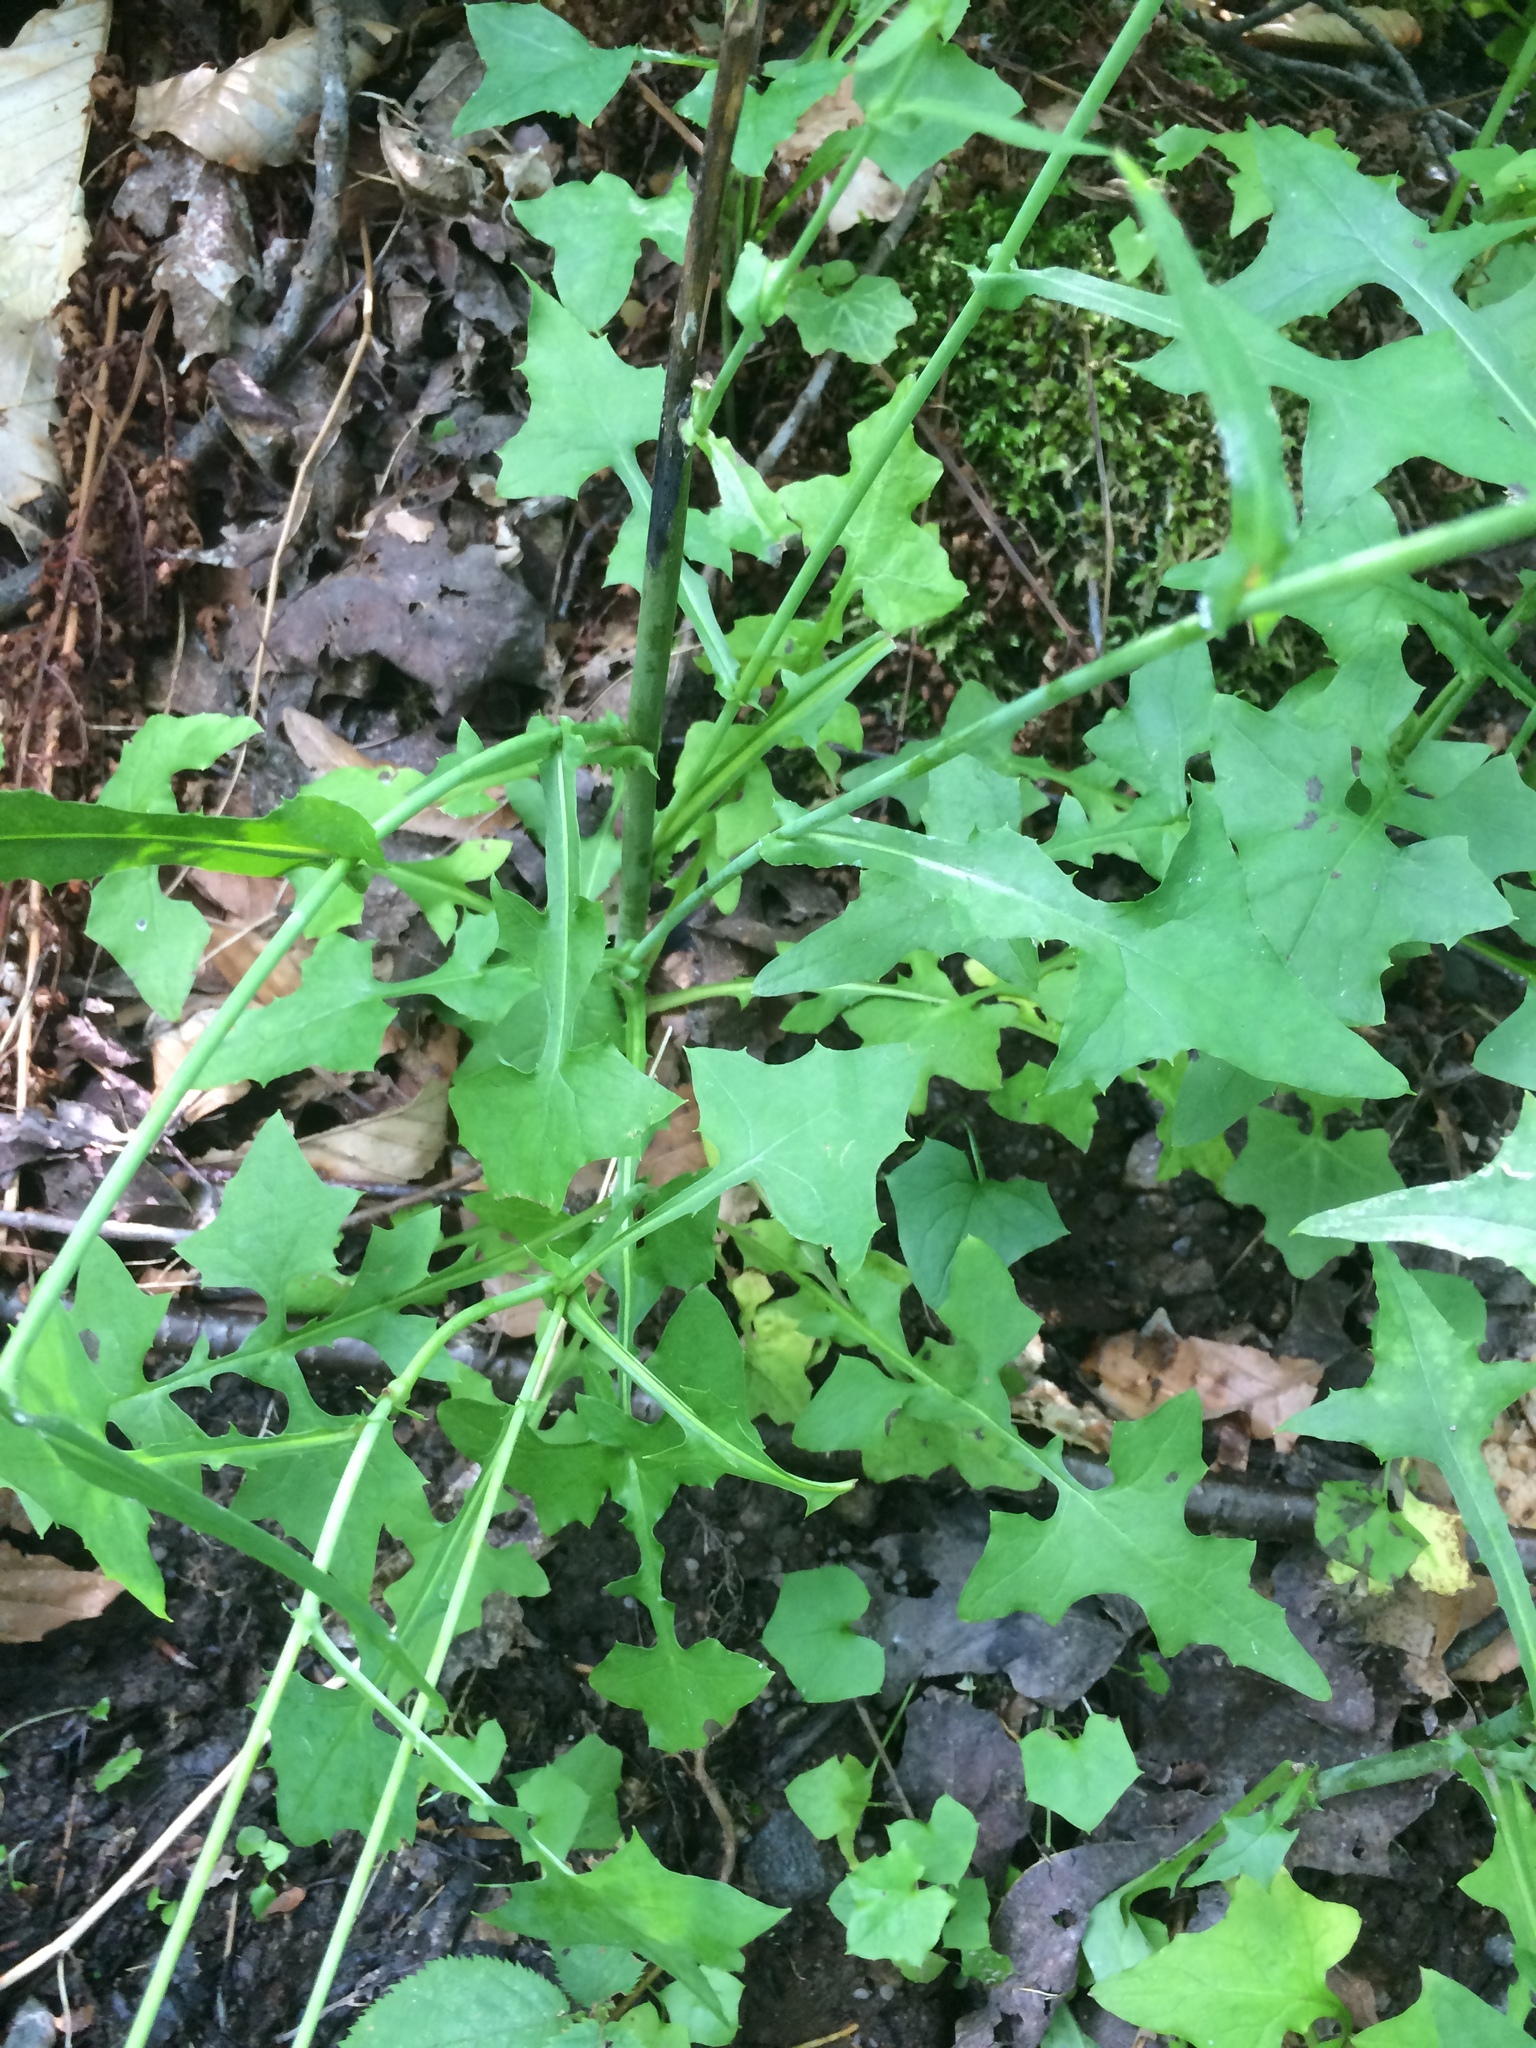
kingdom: Plantae
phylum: Tracheophyta
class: Magnoliopsida
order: Asterales
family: Asteraceae
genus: Mycelis
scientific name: Mycelis muralis
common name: Wall lettuce
